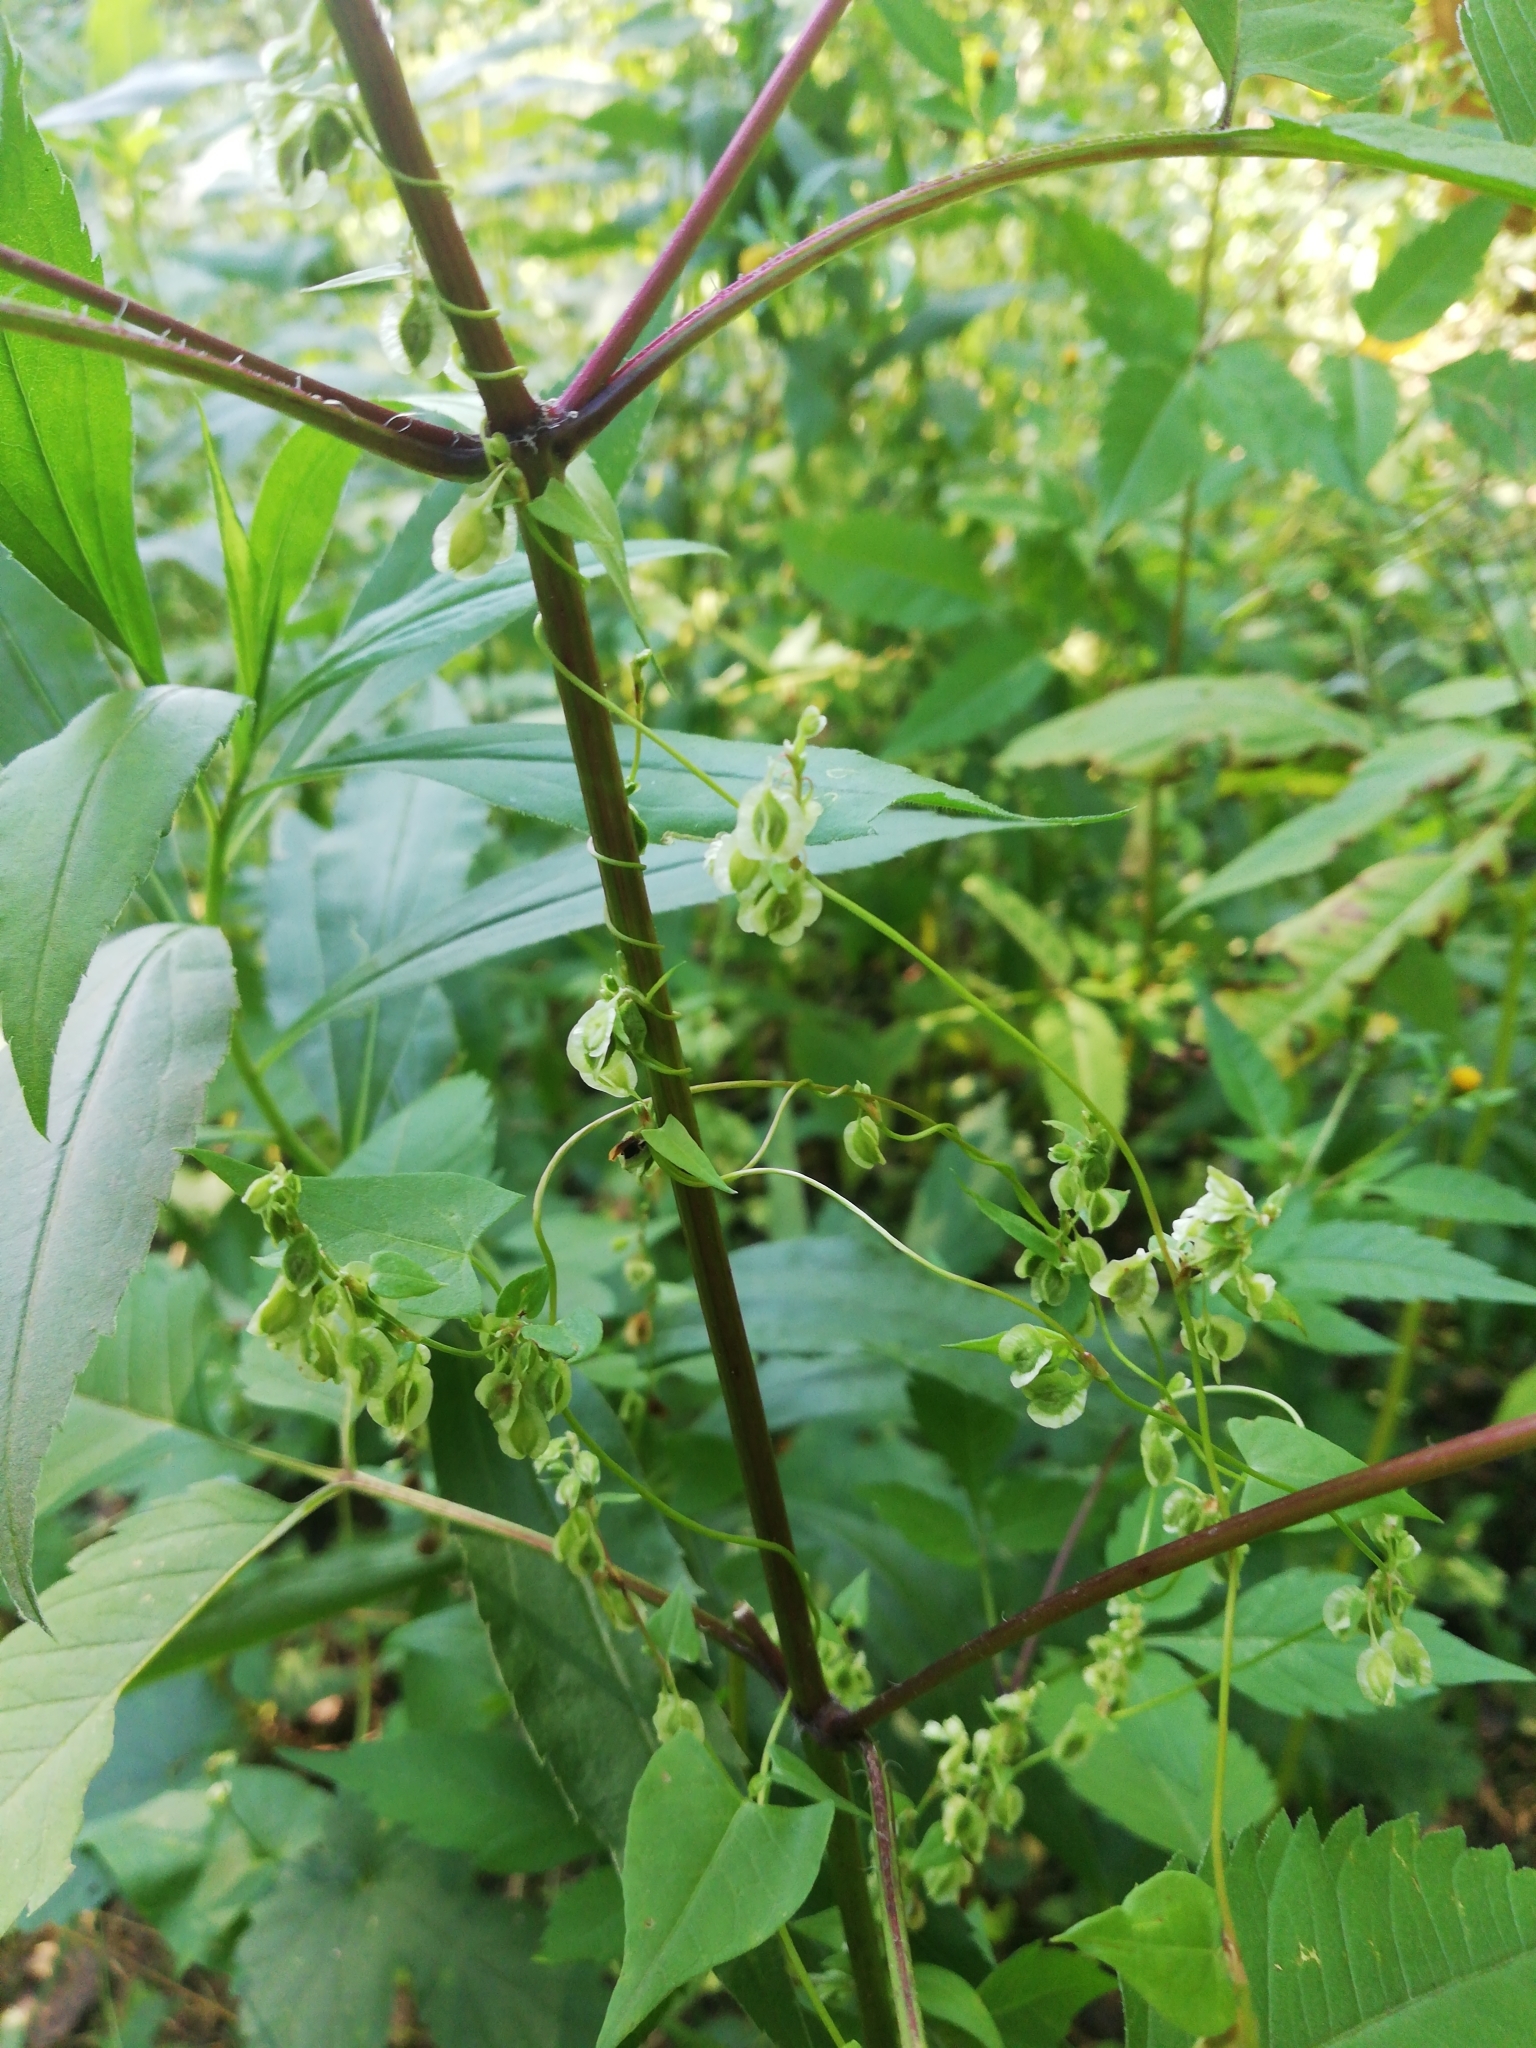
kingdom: Plantae
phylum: Tracheophyta
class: Magnoliopsida
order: Caryophyllales
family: Polygonaceae
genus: Fallopia
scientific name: Fallopia dumetorum
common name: Copse-bindweed
